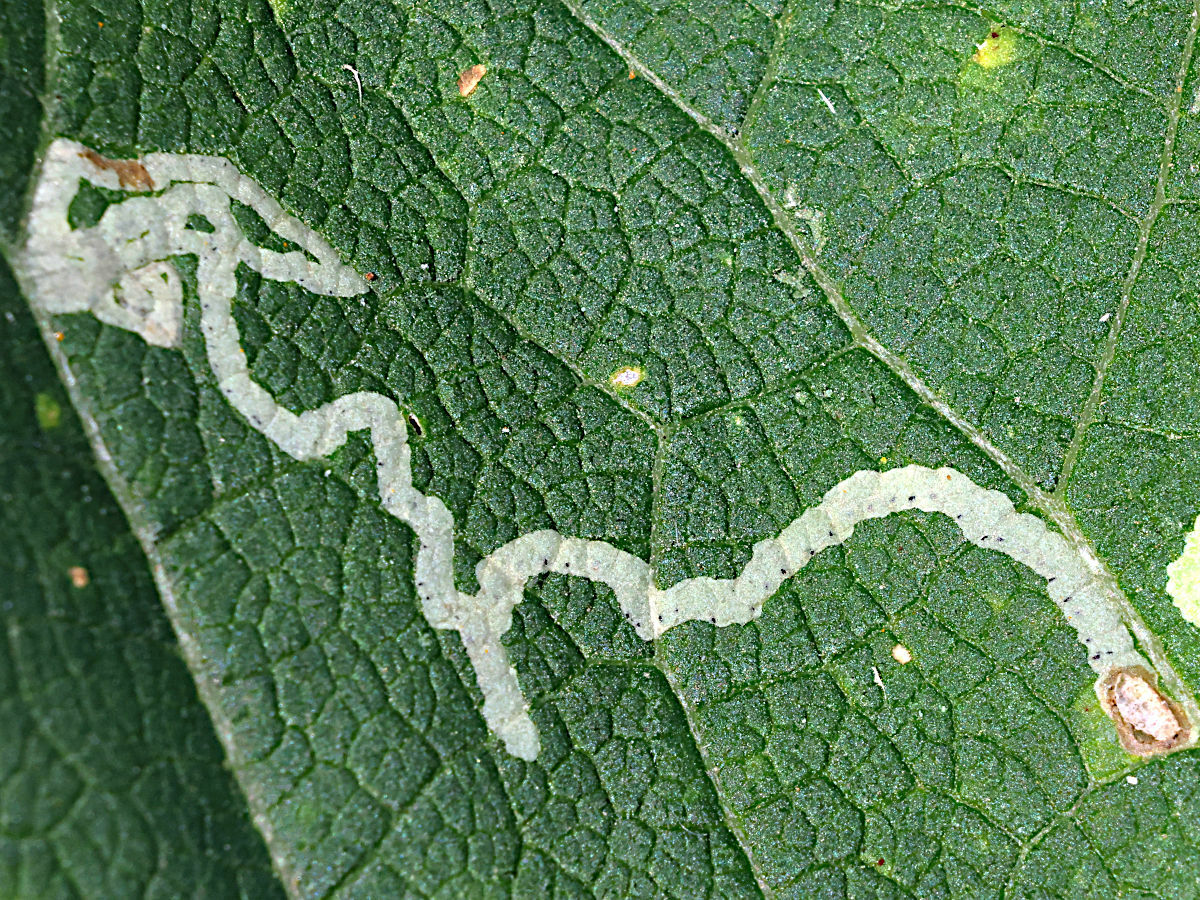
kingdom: Animalia
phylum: Arthropoda
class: Insecta
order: Diptera
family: Agromyzidae
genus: Phytomyza
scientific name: Phytomyza syngenesiae
